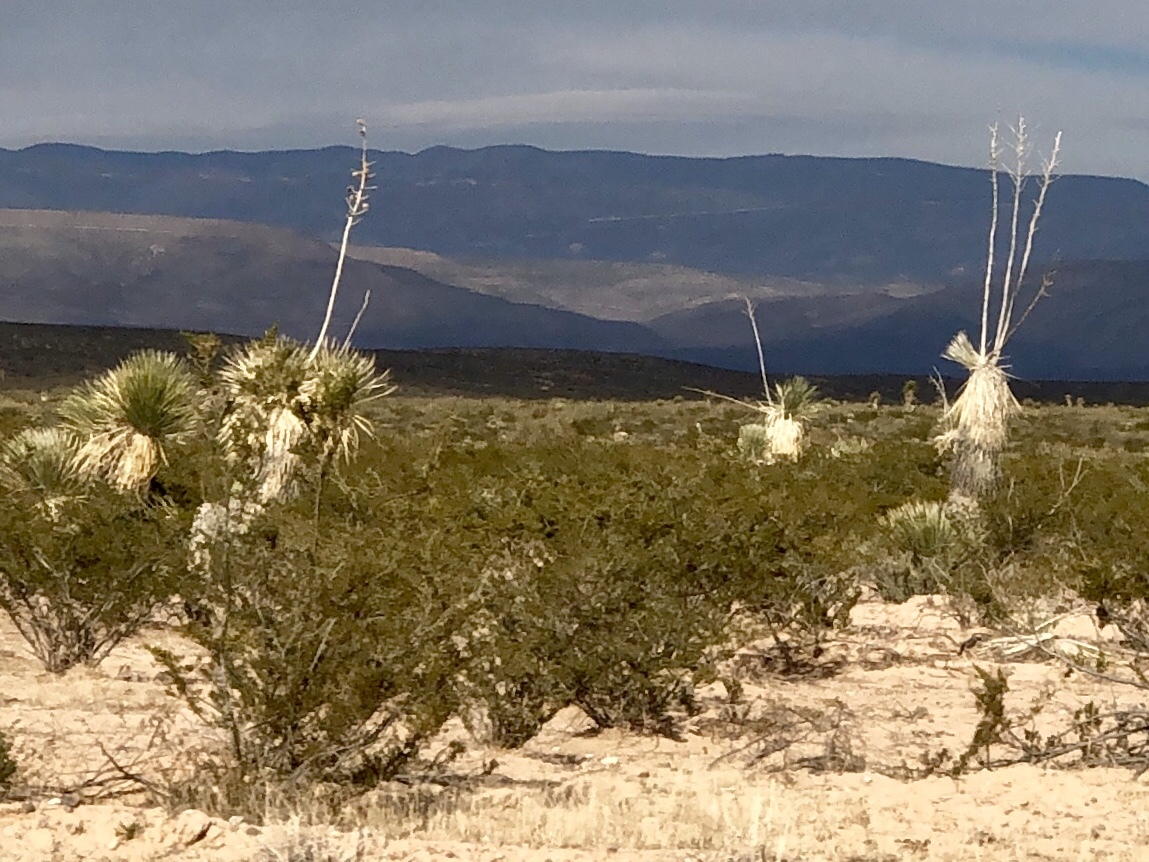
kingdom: Plantae
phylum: Tracheophyta
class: Magnoliopsida
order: Zygophyllales
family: Zygophyllaceae
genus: Larrea
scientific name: Larrea tridentata
